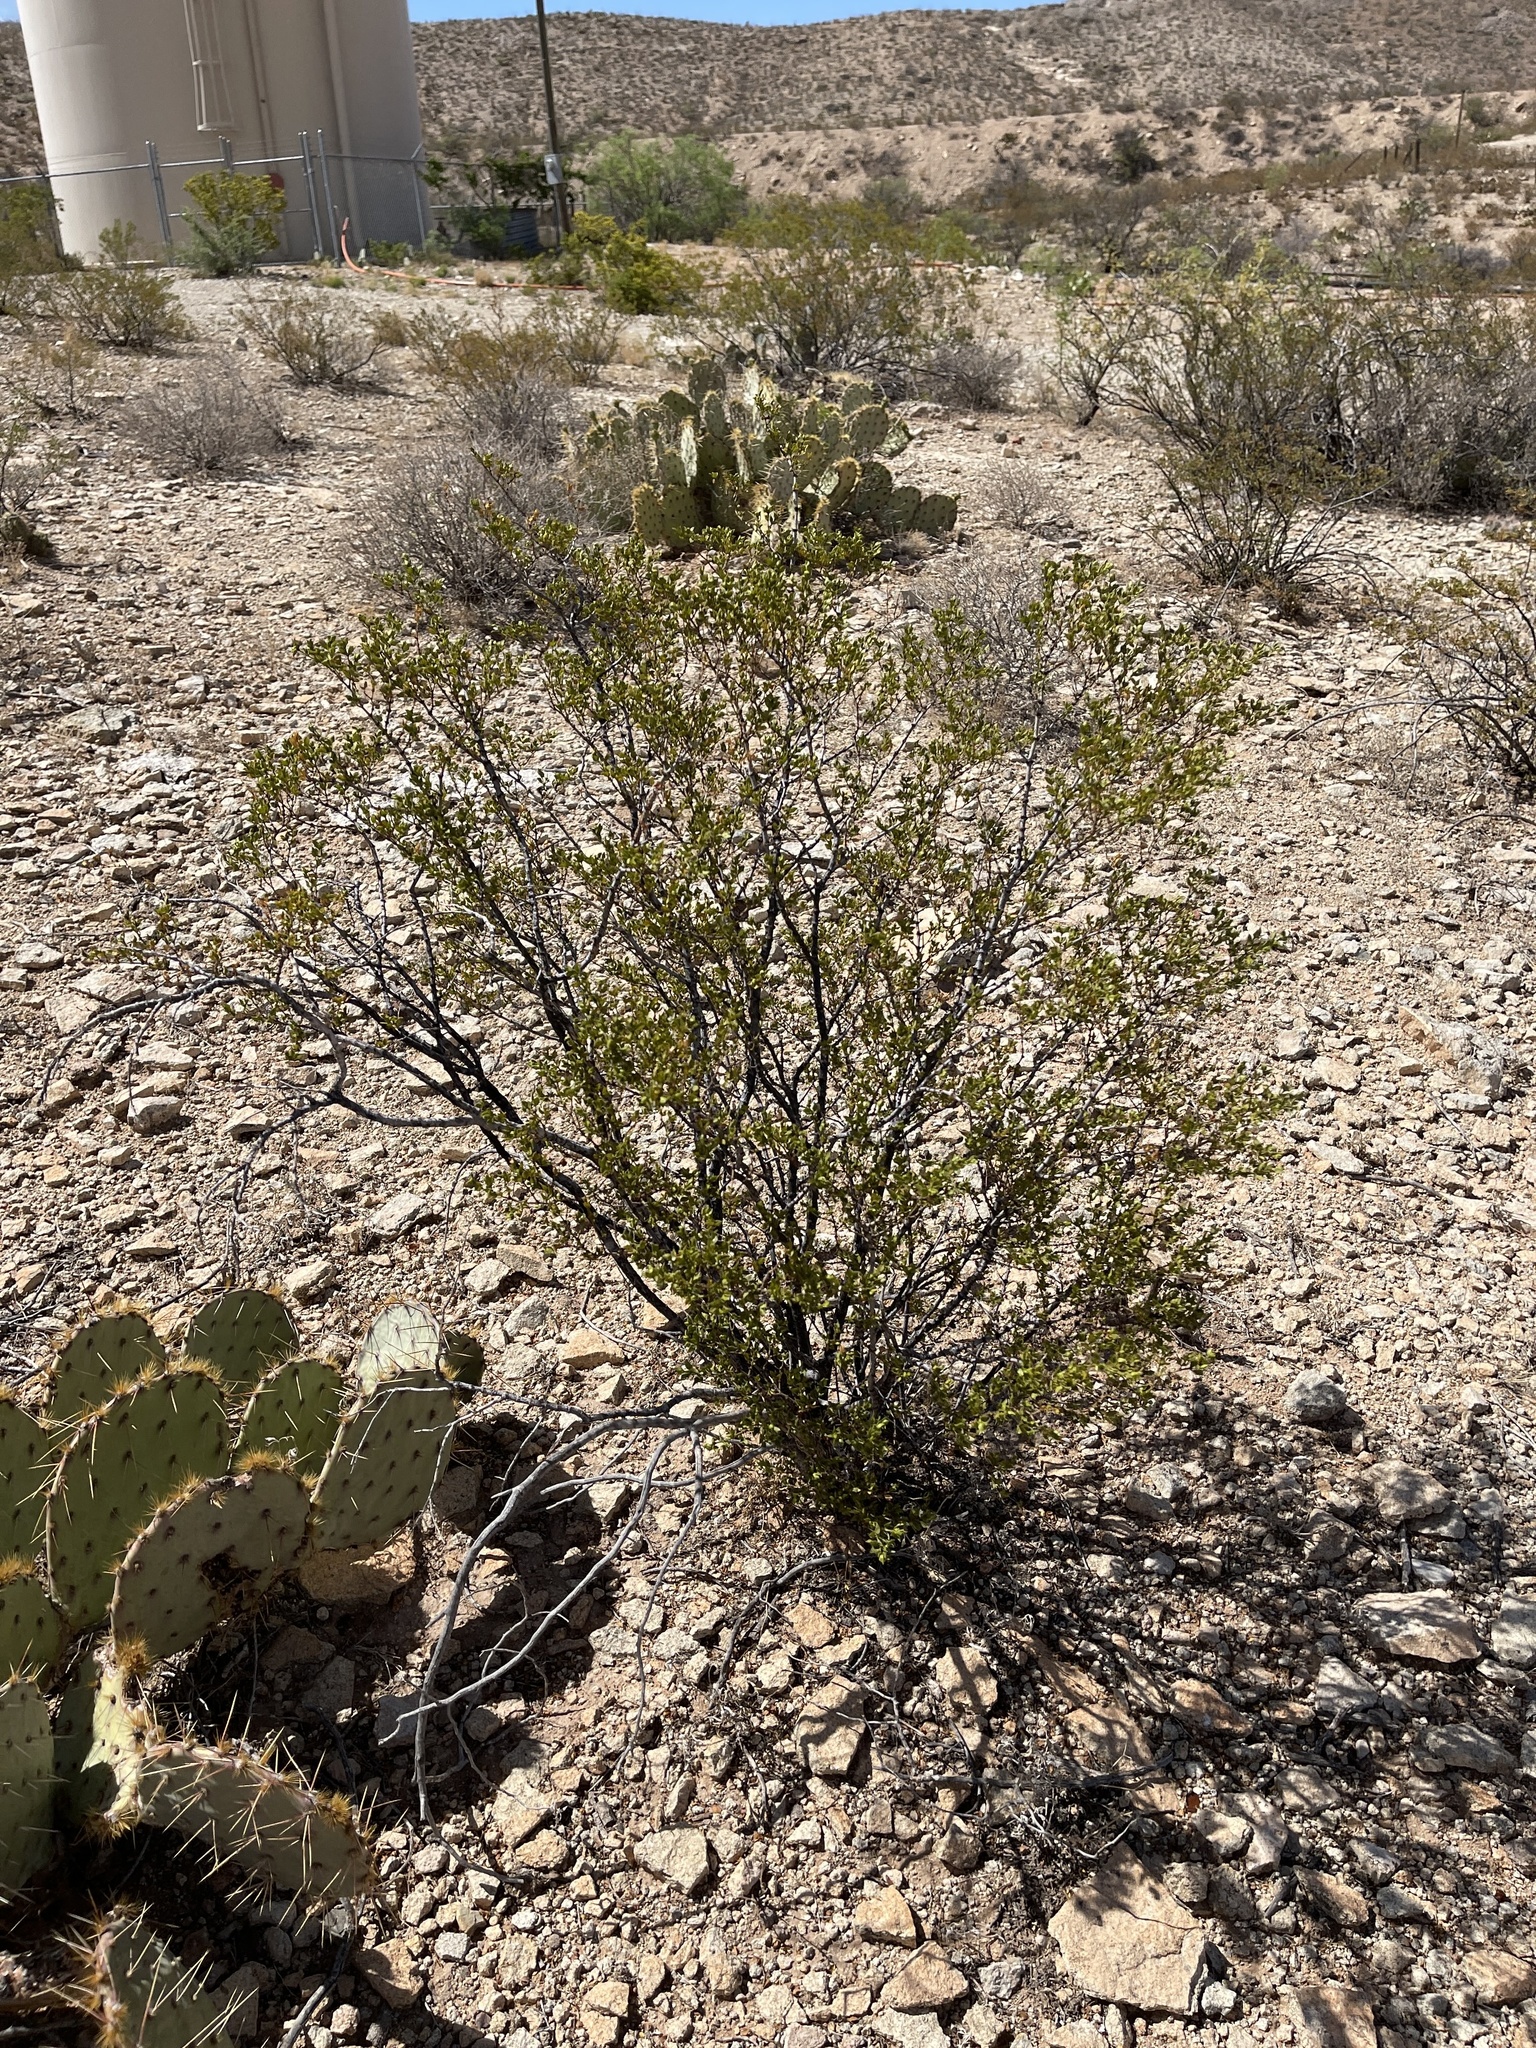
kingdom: Plantae
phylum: Tracheophyta
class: Magnoliopsida
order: Zygophyllales
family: Zygophyllaceae
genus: Larrea
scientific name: Larrea tridentata
